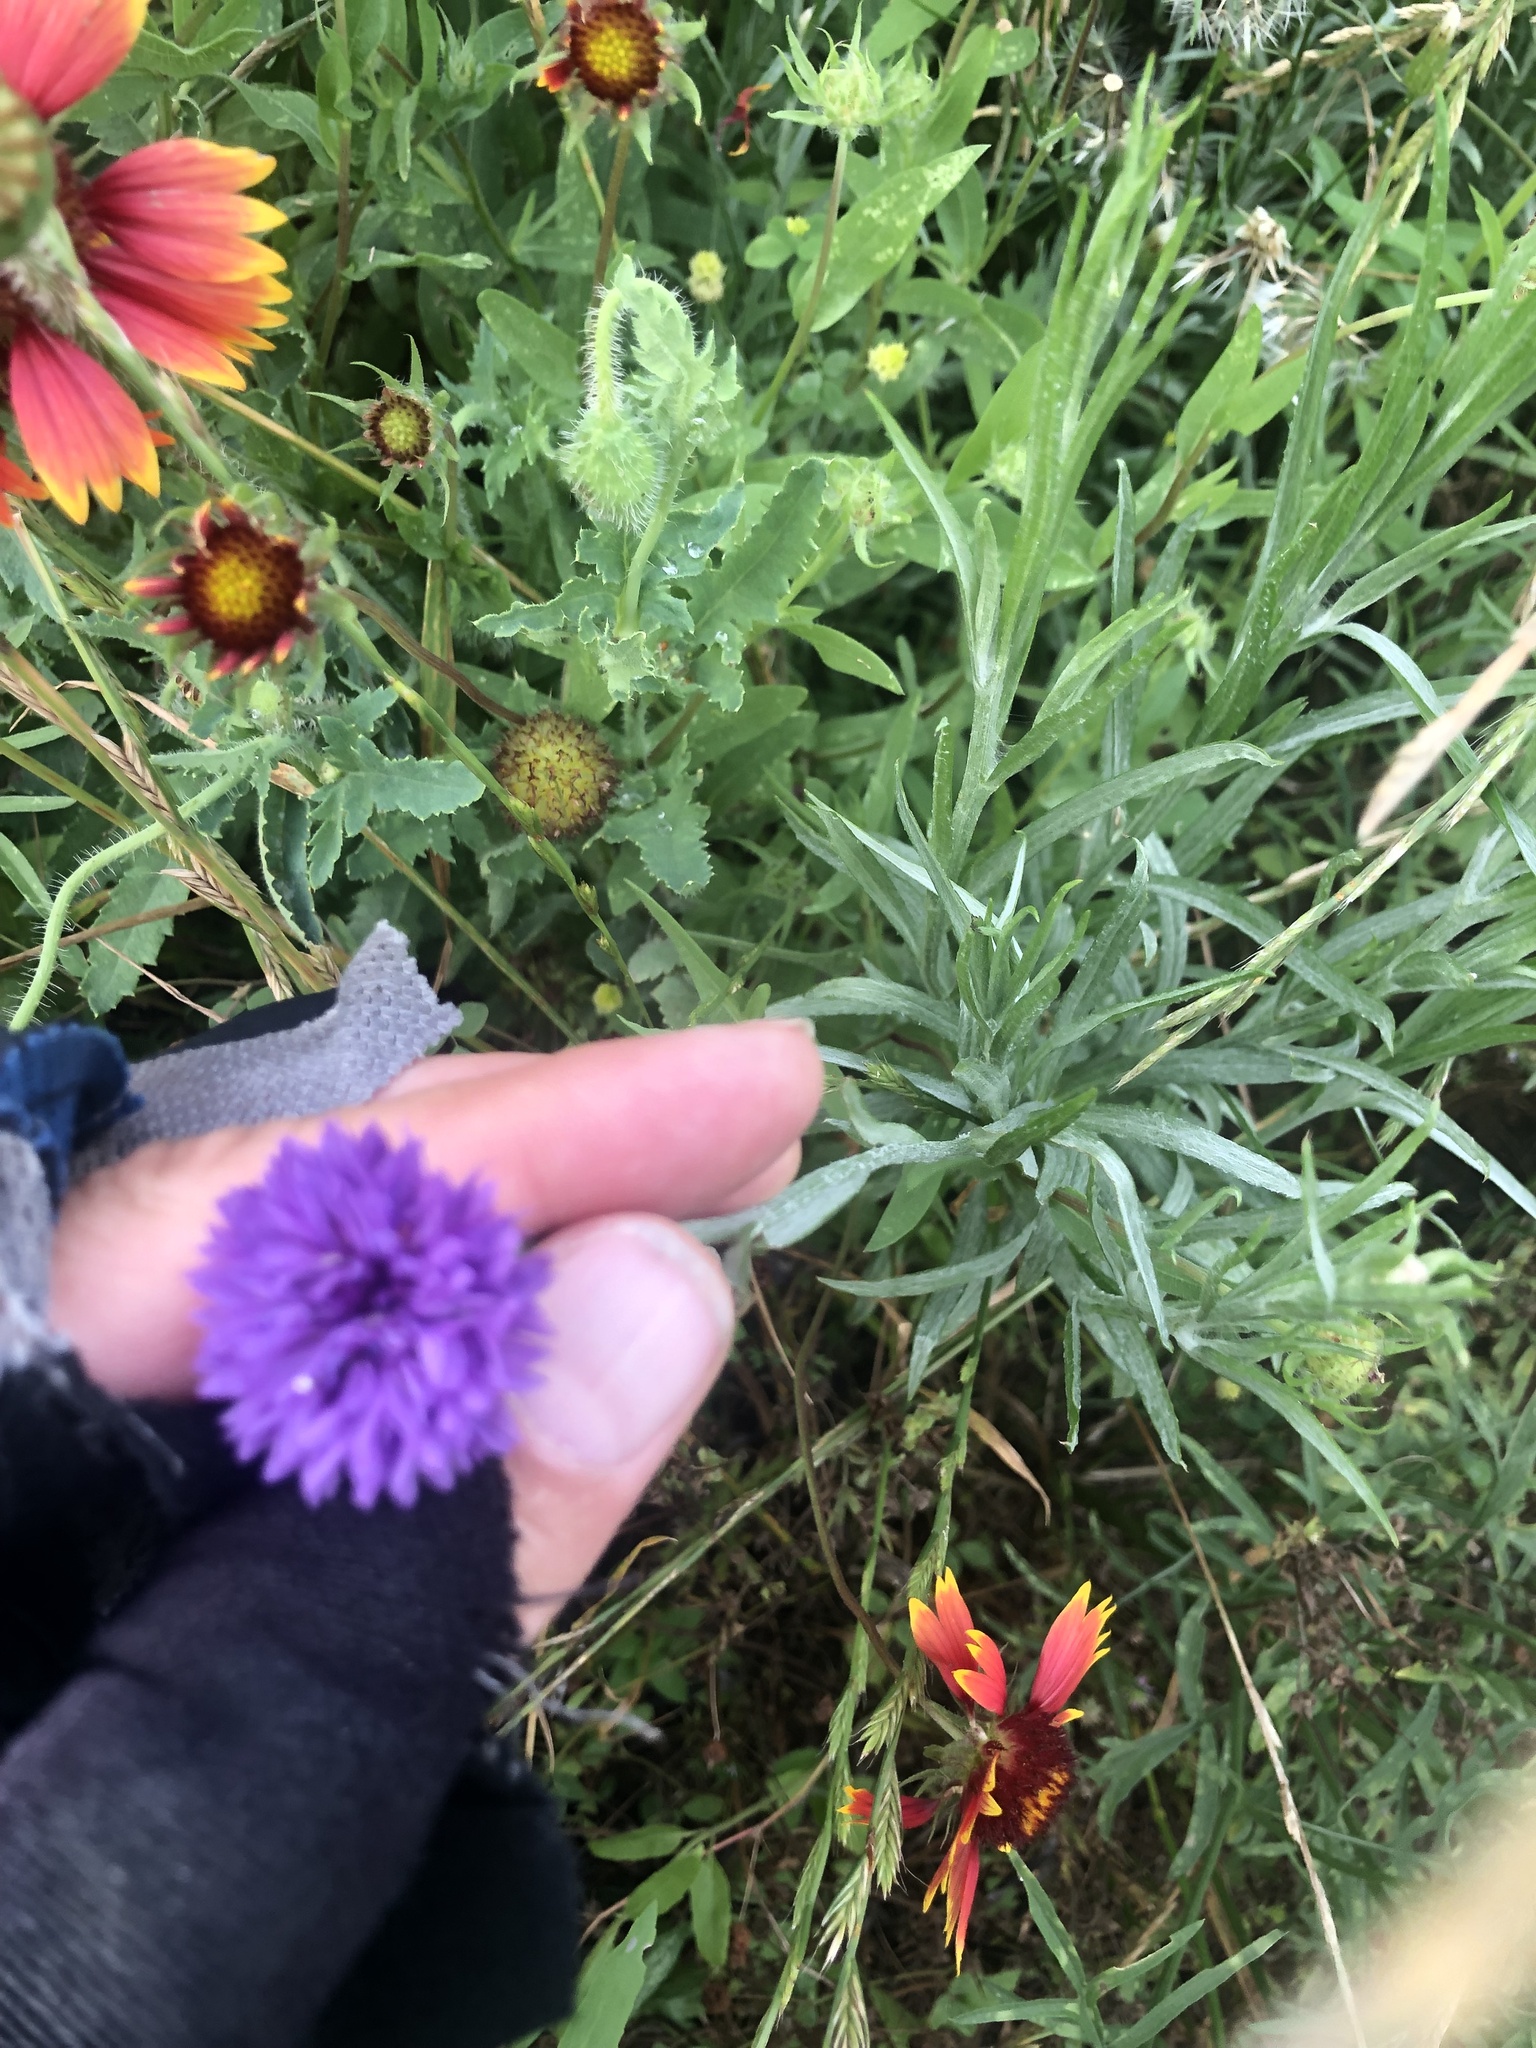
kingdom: Plantae
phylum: Tracheophyta
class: Magnoliopsida
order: Asterales
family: Asteraceae
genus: Centaurea
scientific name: Centaurea cyanus
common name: Cornflower
